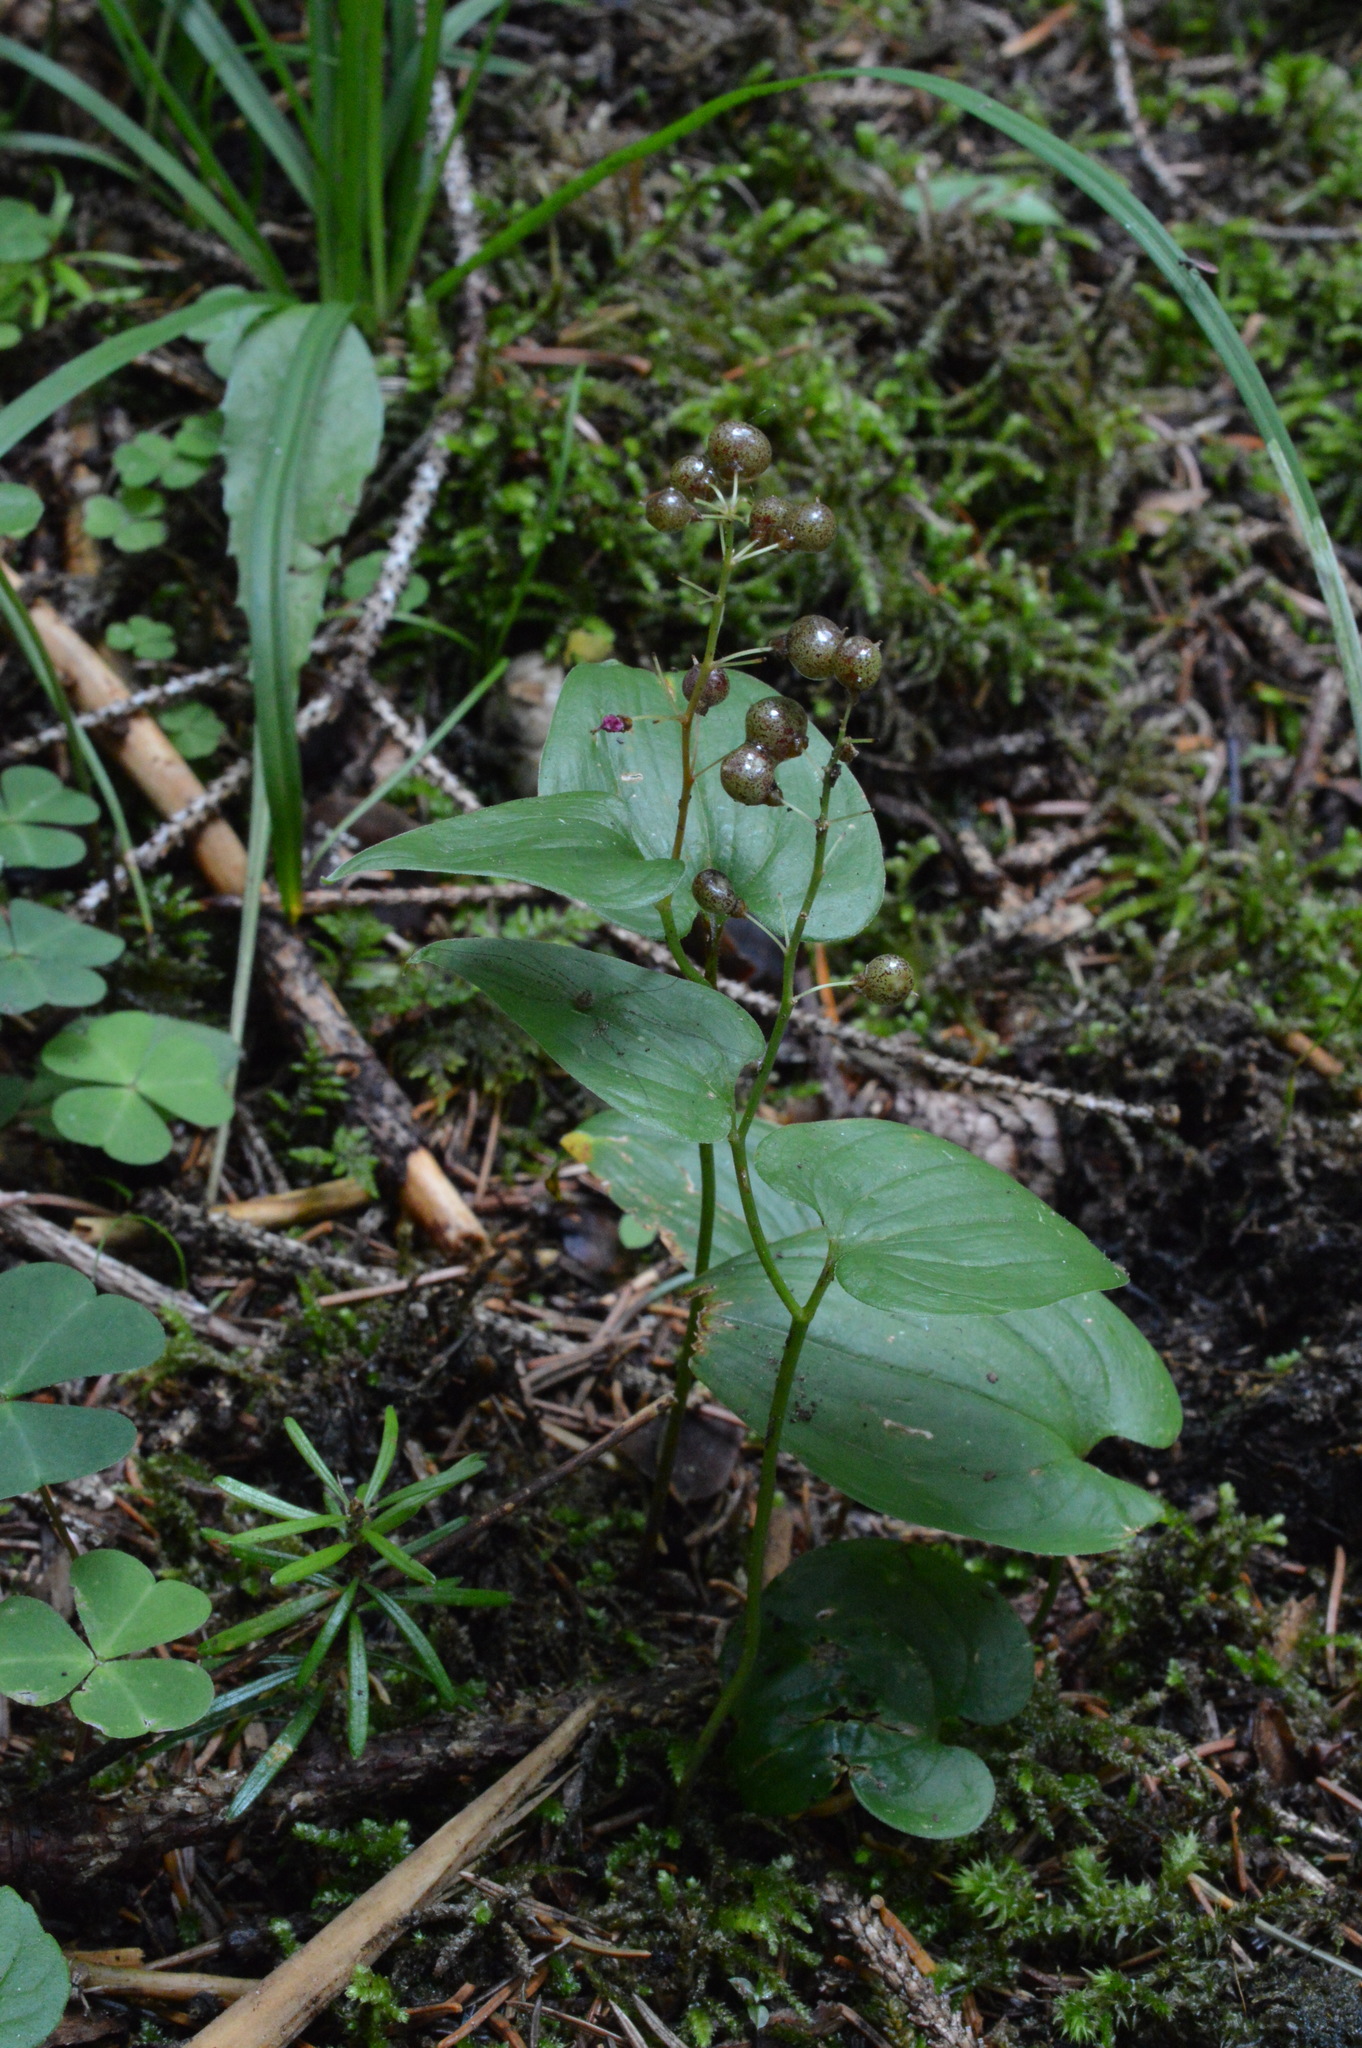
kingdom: Plantae
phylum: Tracheophyta
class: Liliopsida
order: Asparagales
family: Asparagaceae
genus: Maianthemum
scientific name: Maianthemum bifolium
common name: May lily
